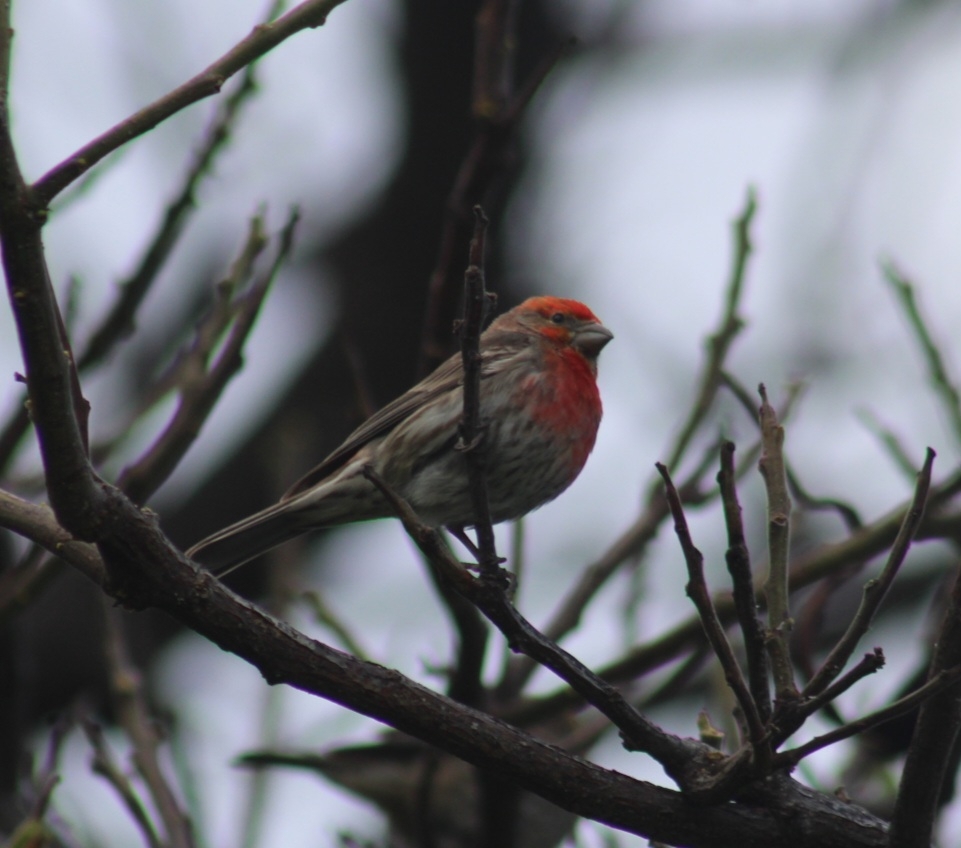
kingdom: Animalia
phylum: Chordata
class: Aves
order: Passeriformes
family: Fringillidae
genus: Haemorhous
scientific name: Haemorhous mexicanus
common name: House finch
